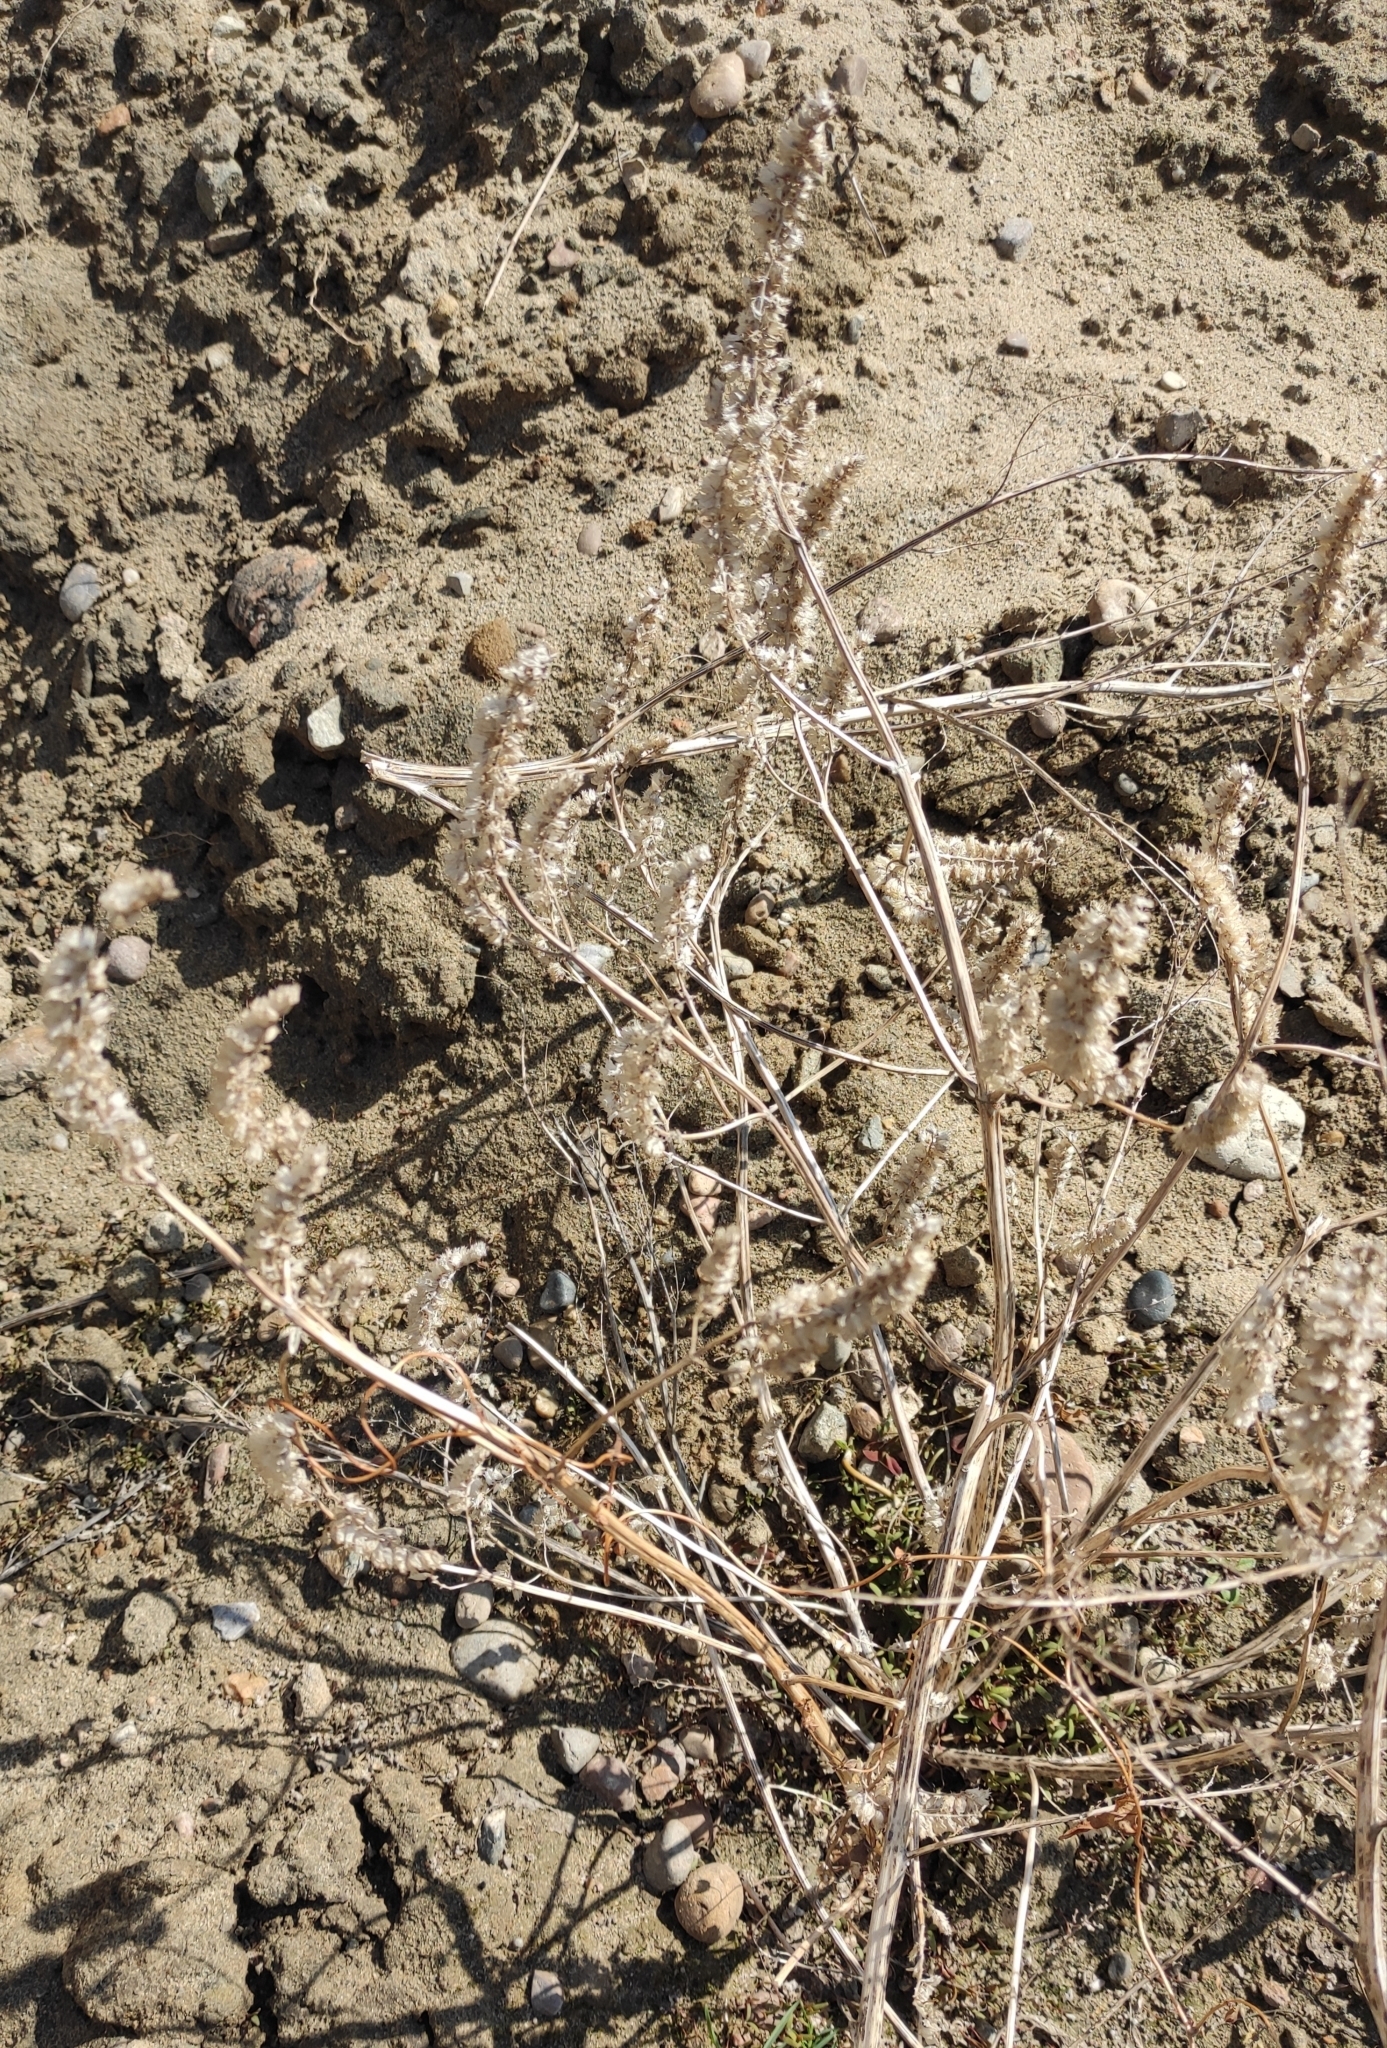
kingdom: Plantae
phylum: Tracheophyta
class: Magnoliopsida
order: Lamiales
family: Lamiaceae
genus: Elsholtzia
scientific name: Elsholtzia ciliata
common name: Ciliate elsholtzia
